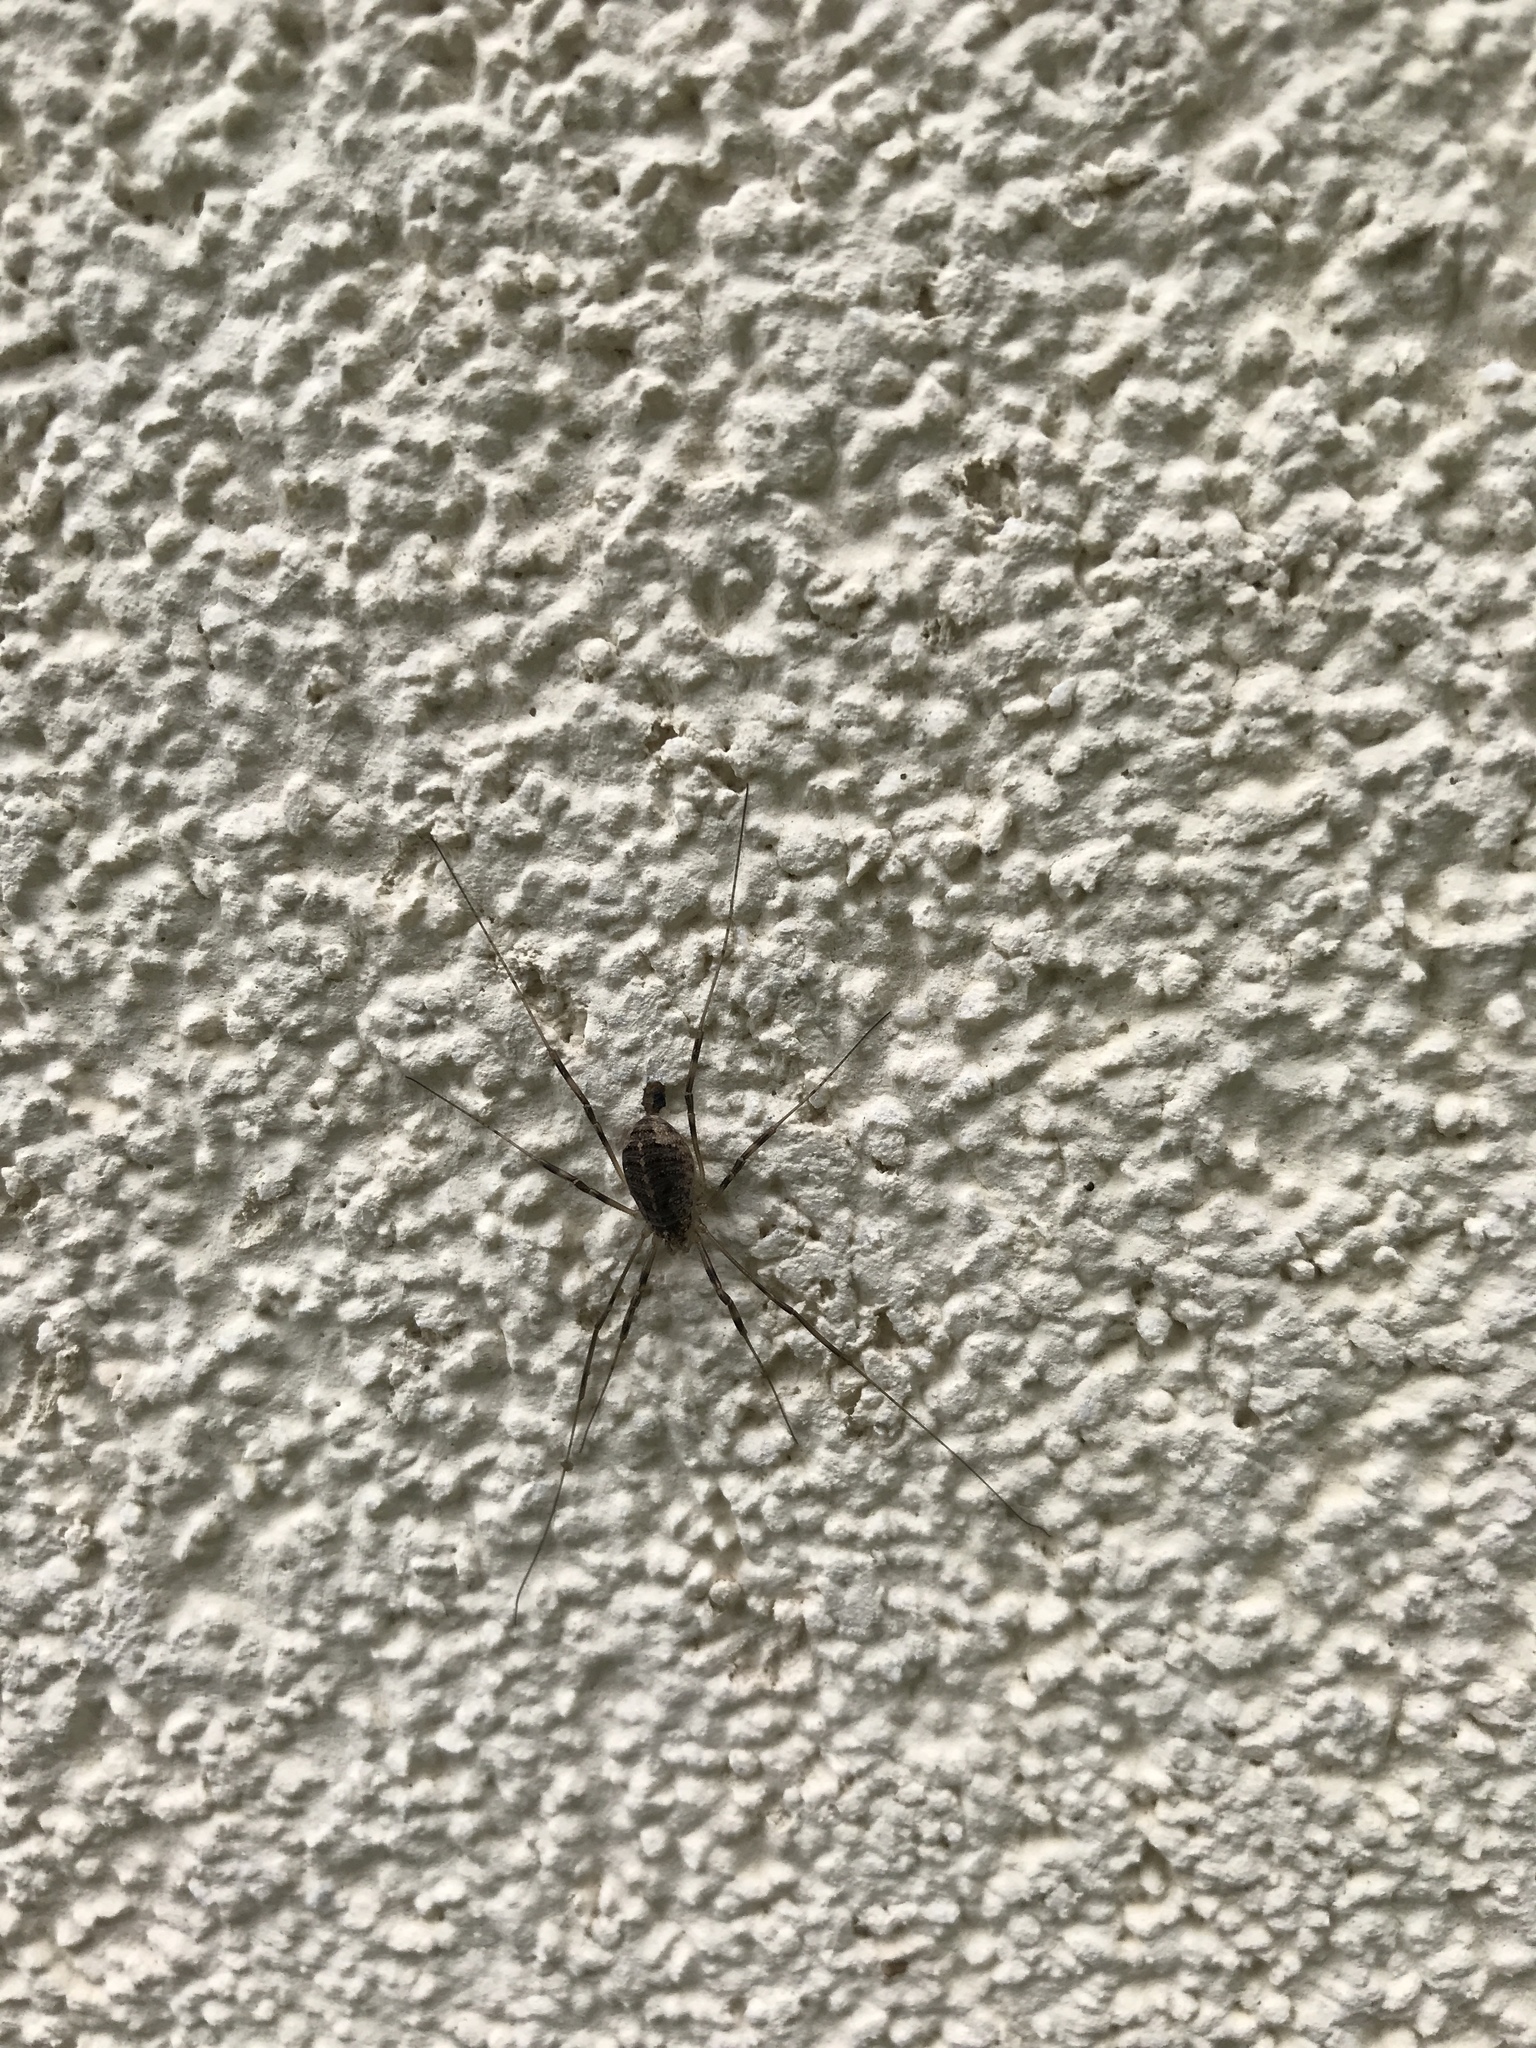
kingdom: Animalia
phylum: Arthropoda
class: Arachnida
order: Opiliones
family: Phalangiidae
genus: Opilio
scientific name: Opilio saxatilis
